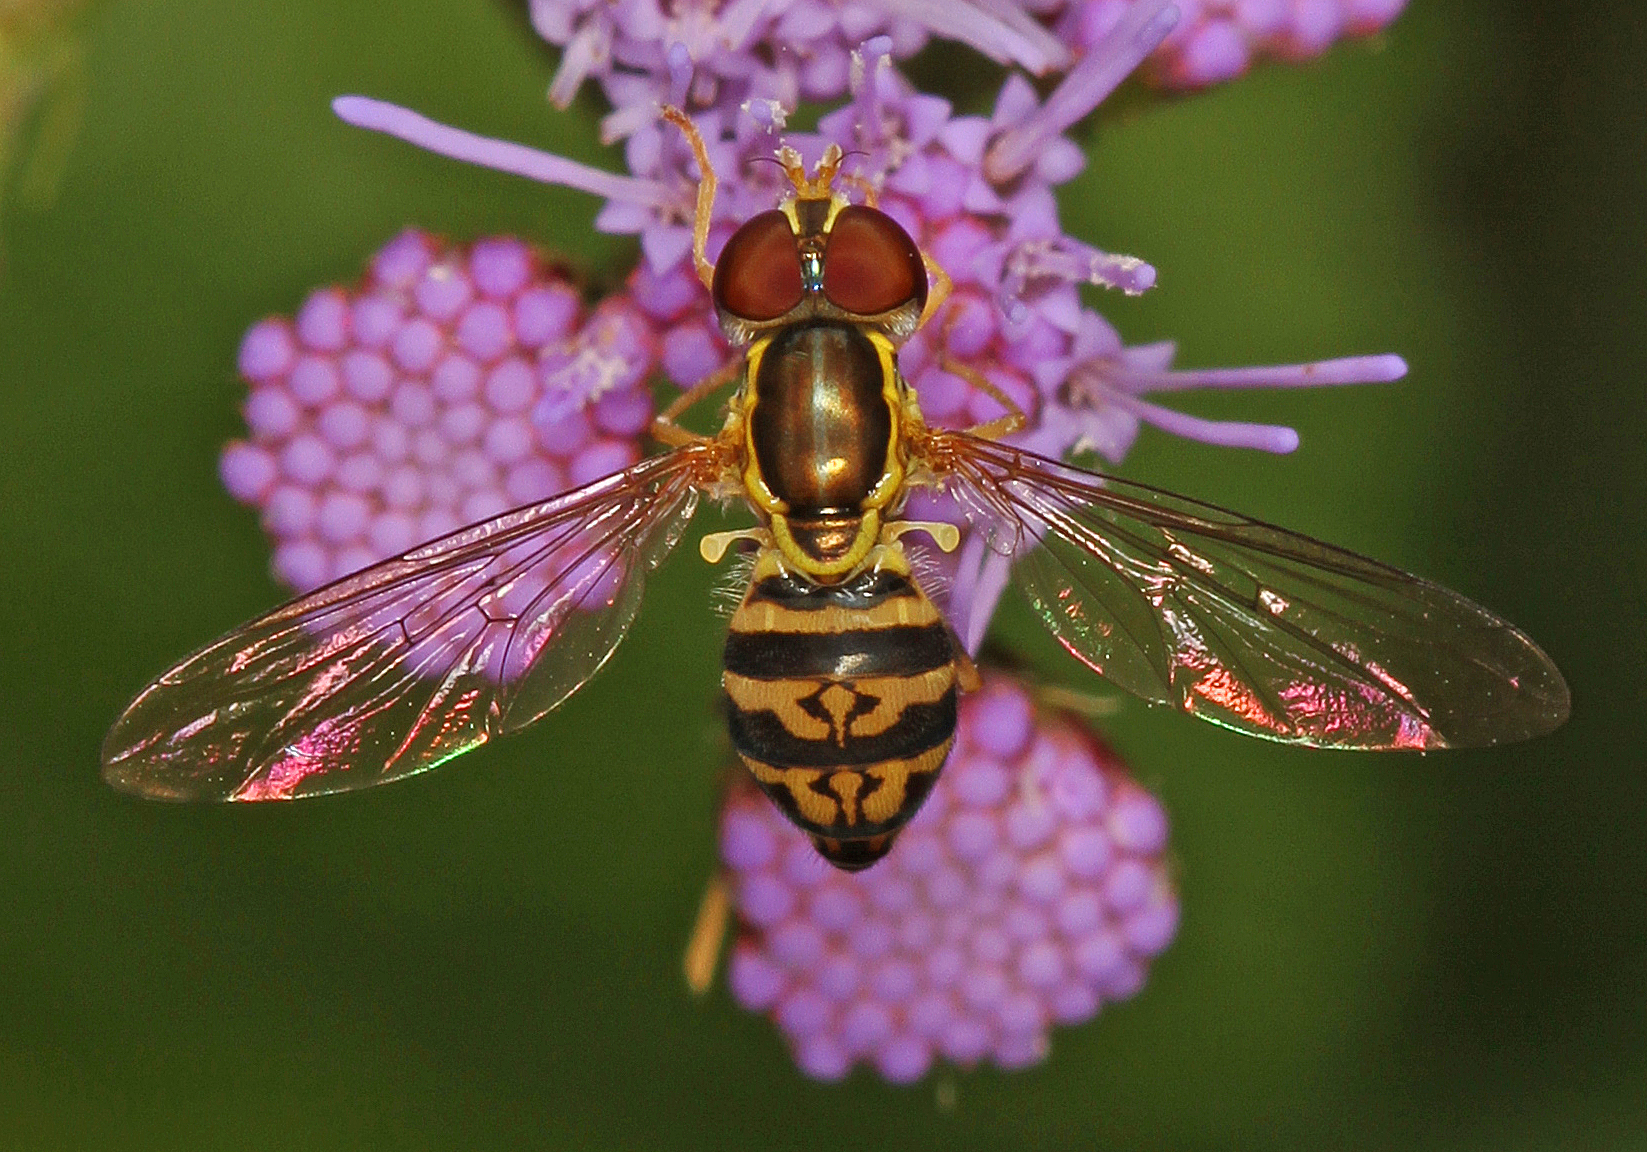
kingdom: Animalia
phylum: Arthropoda
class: Insecta
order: Diptera
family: Syrphidae
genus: Toxomerus
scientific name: Toxomerus geminatus
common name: Eastern calligrapher
